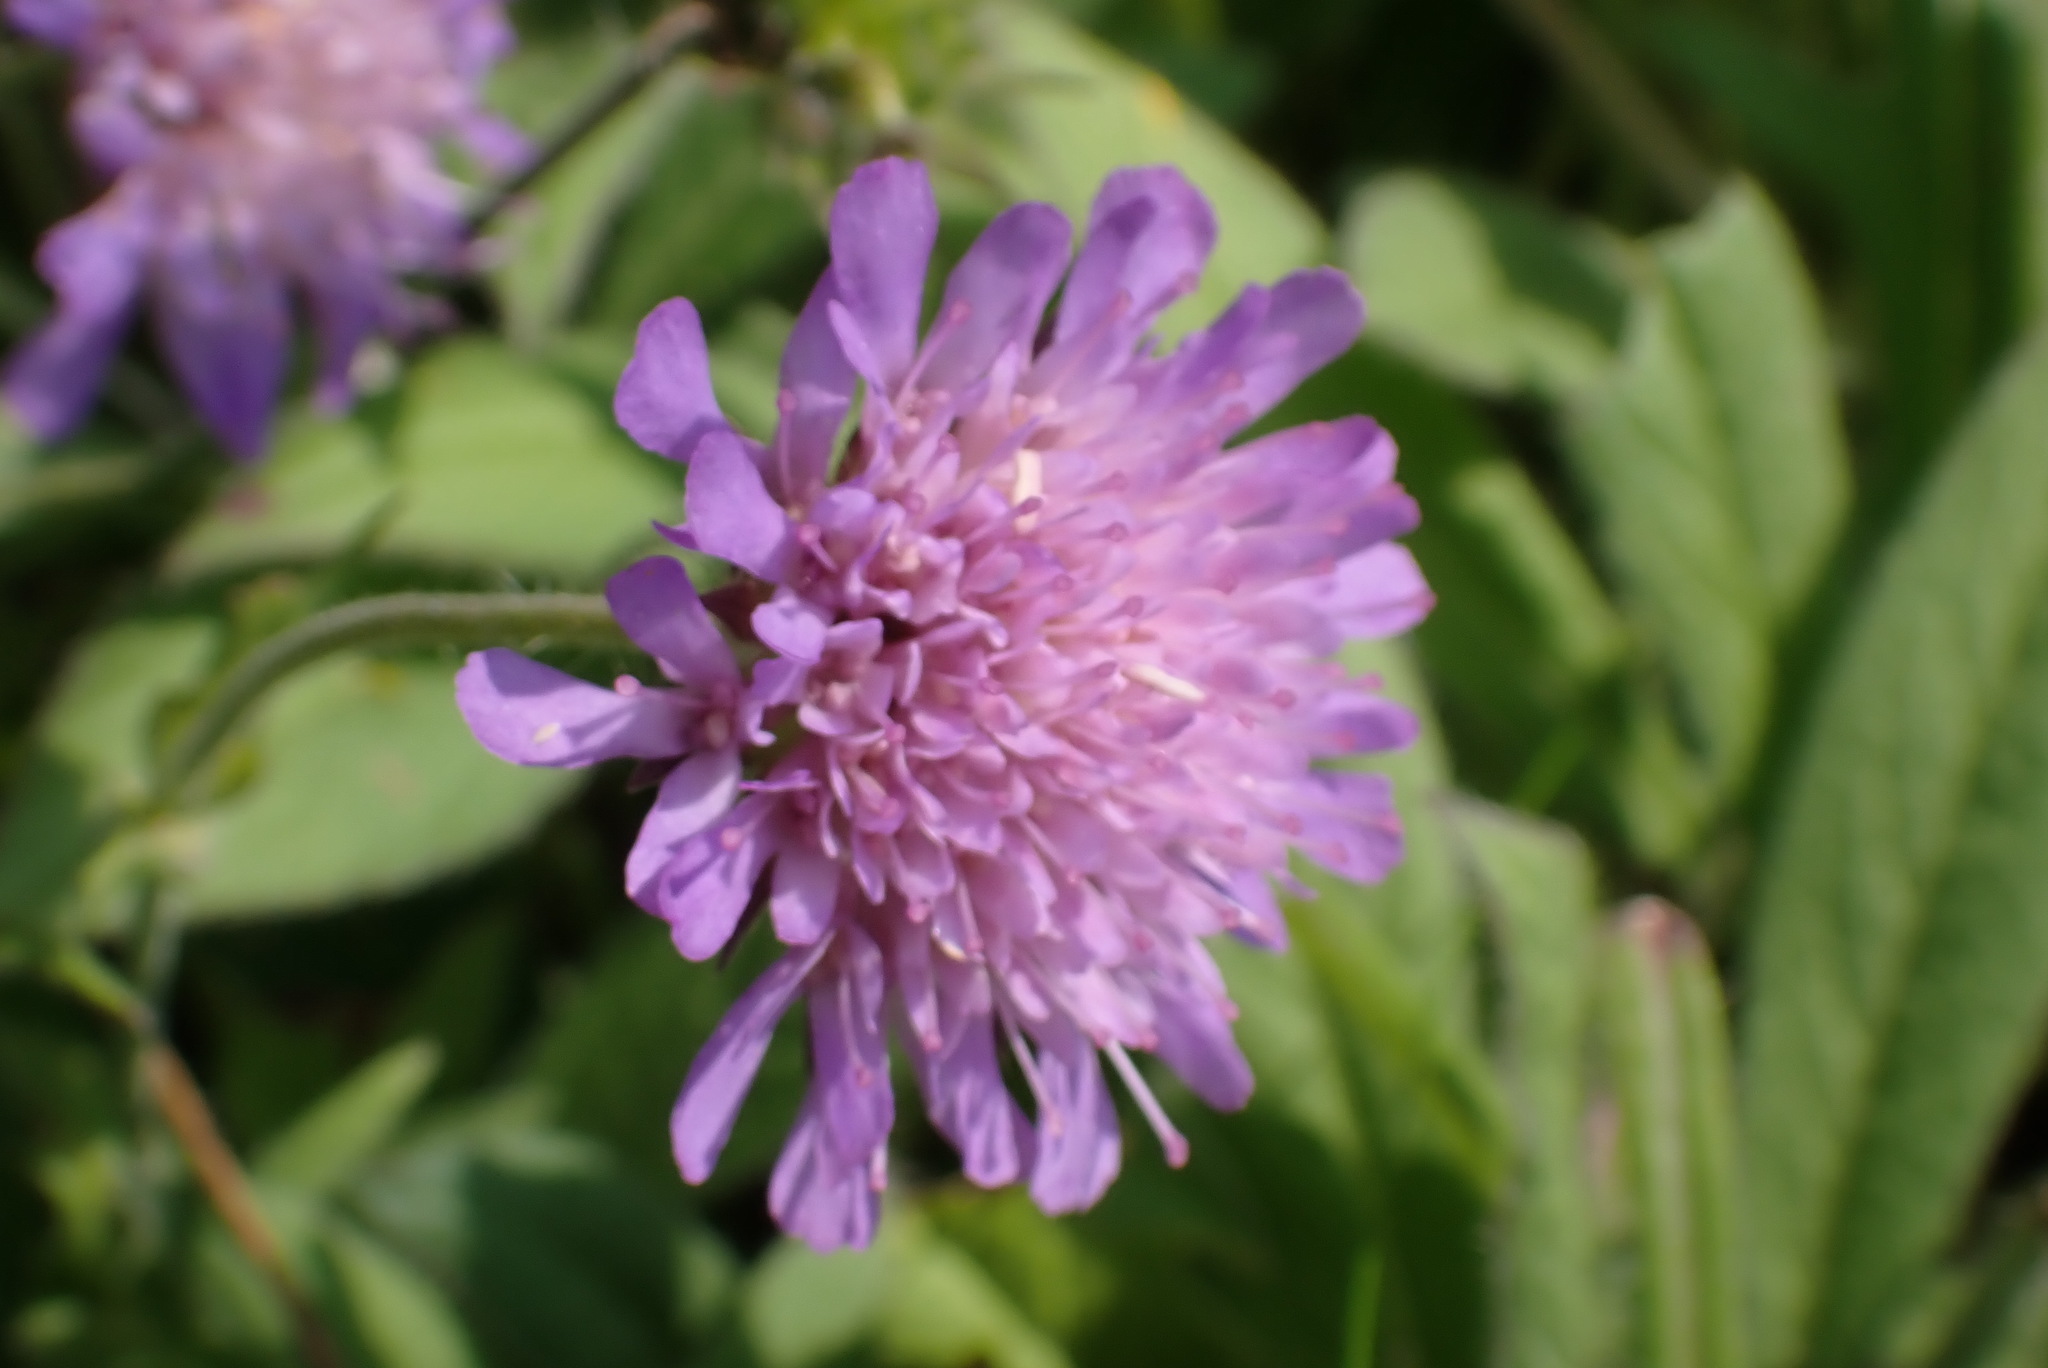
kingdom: Plantae
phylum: Tracheophyta
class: Magnoliopsida
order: Dipsacales
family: Caprifoliaceae
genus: Knautia
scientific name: Knautia arvensis
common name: Field scabiosa
